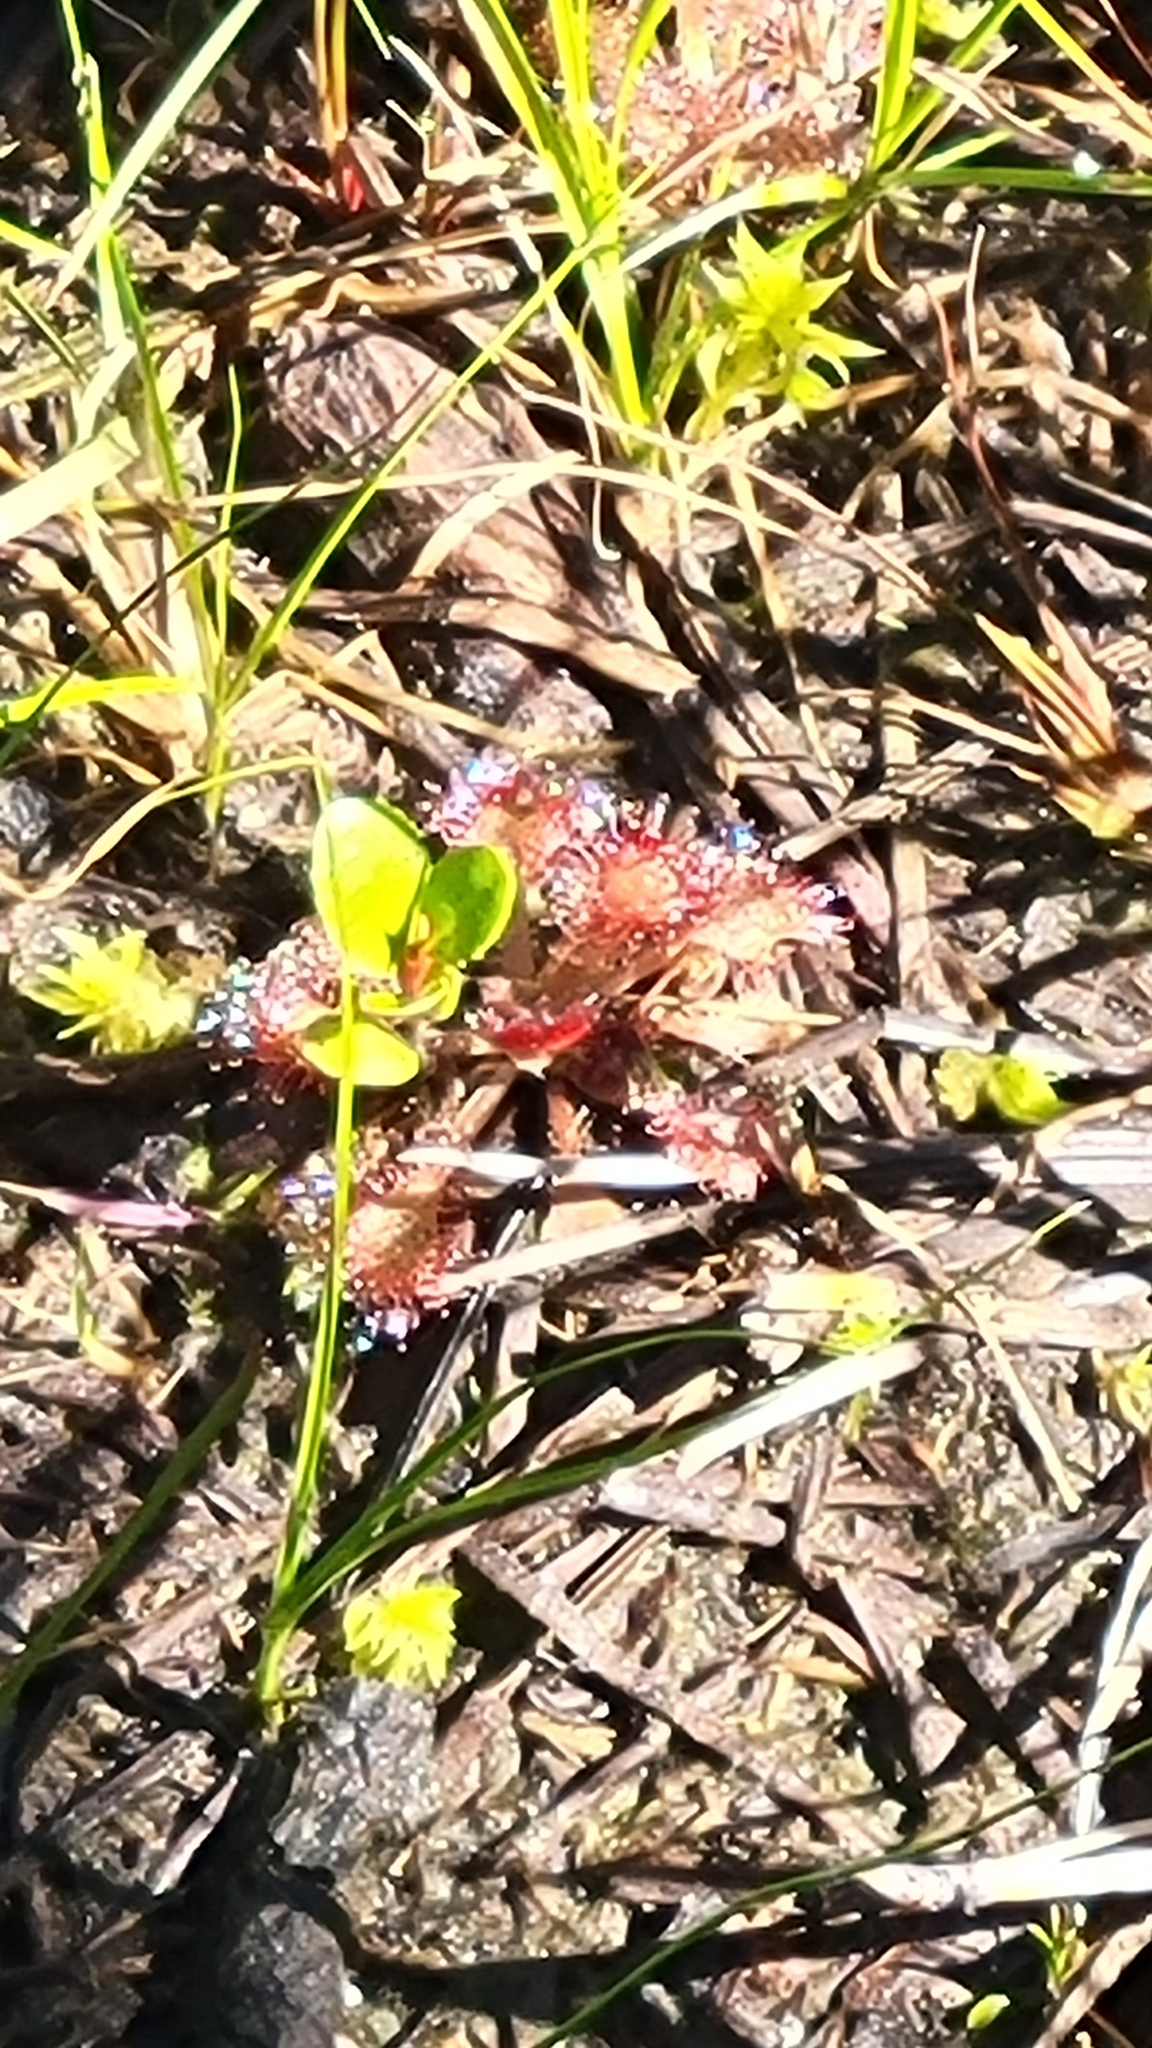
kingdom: Plantae
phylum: Tracheophyta
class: Magnoliopsida
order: Caryophyllales
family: Droseraceae
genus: Drosera
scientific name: Drosera capillaris
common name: Pink sundew
